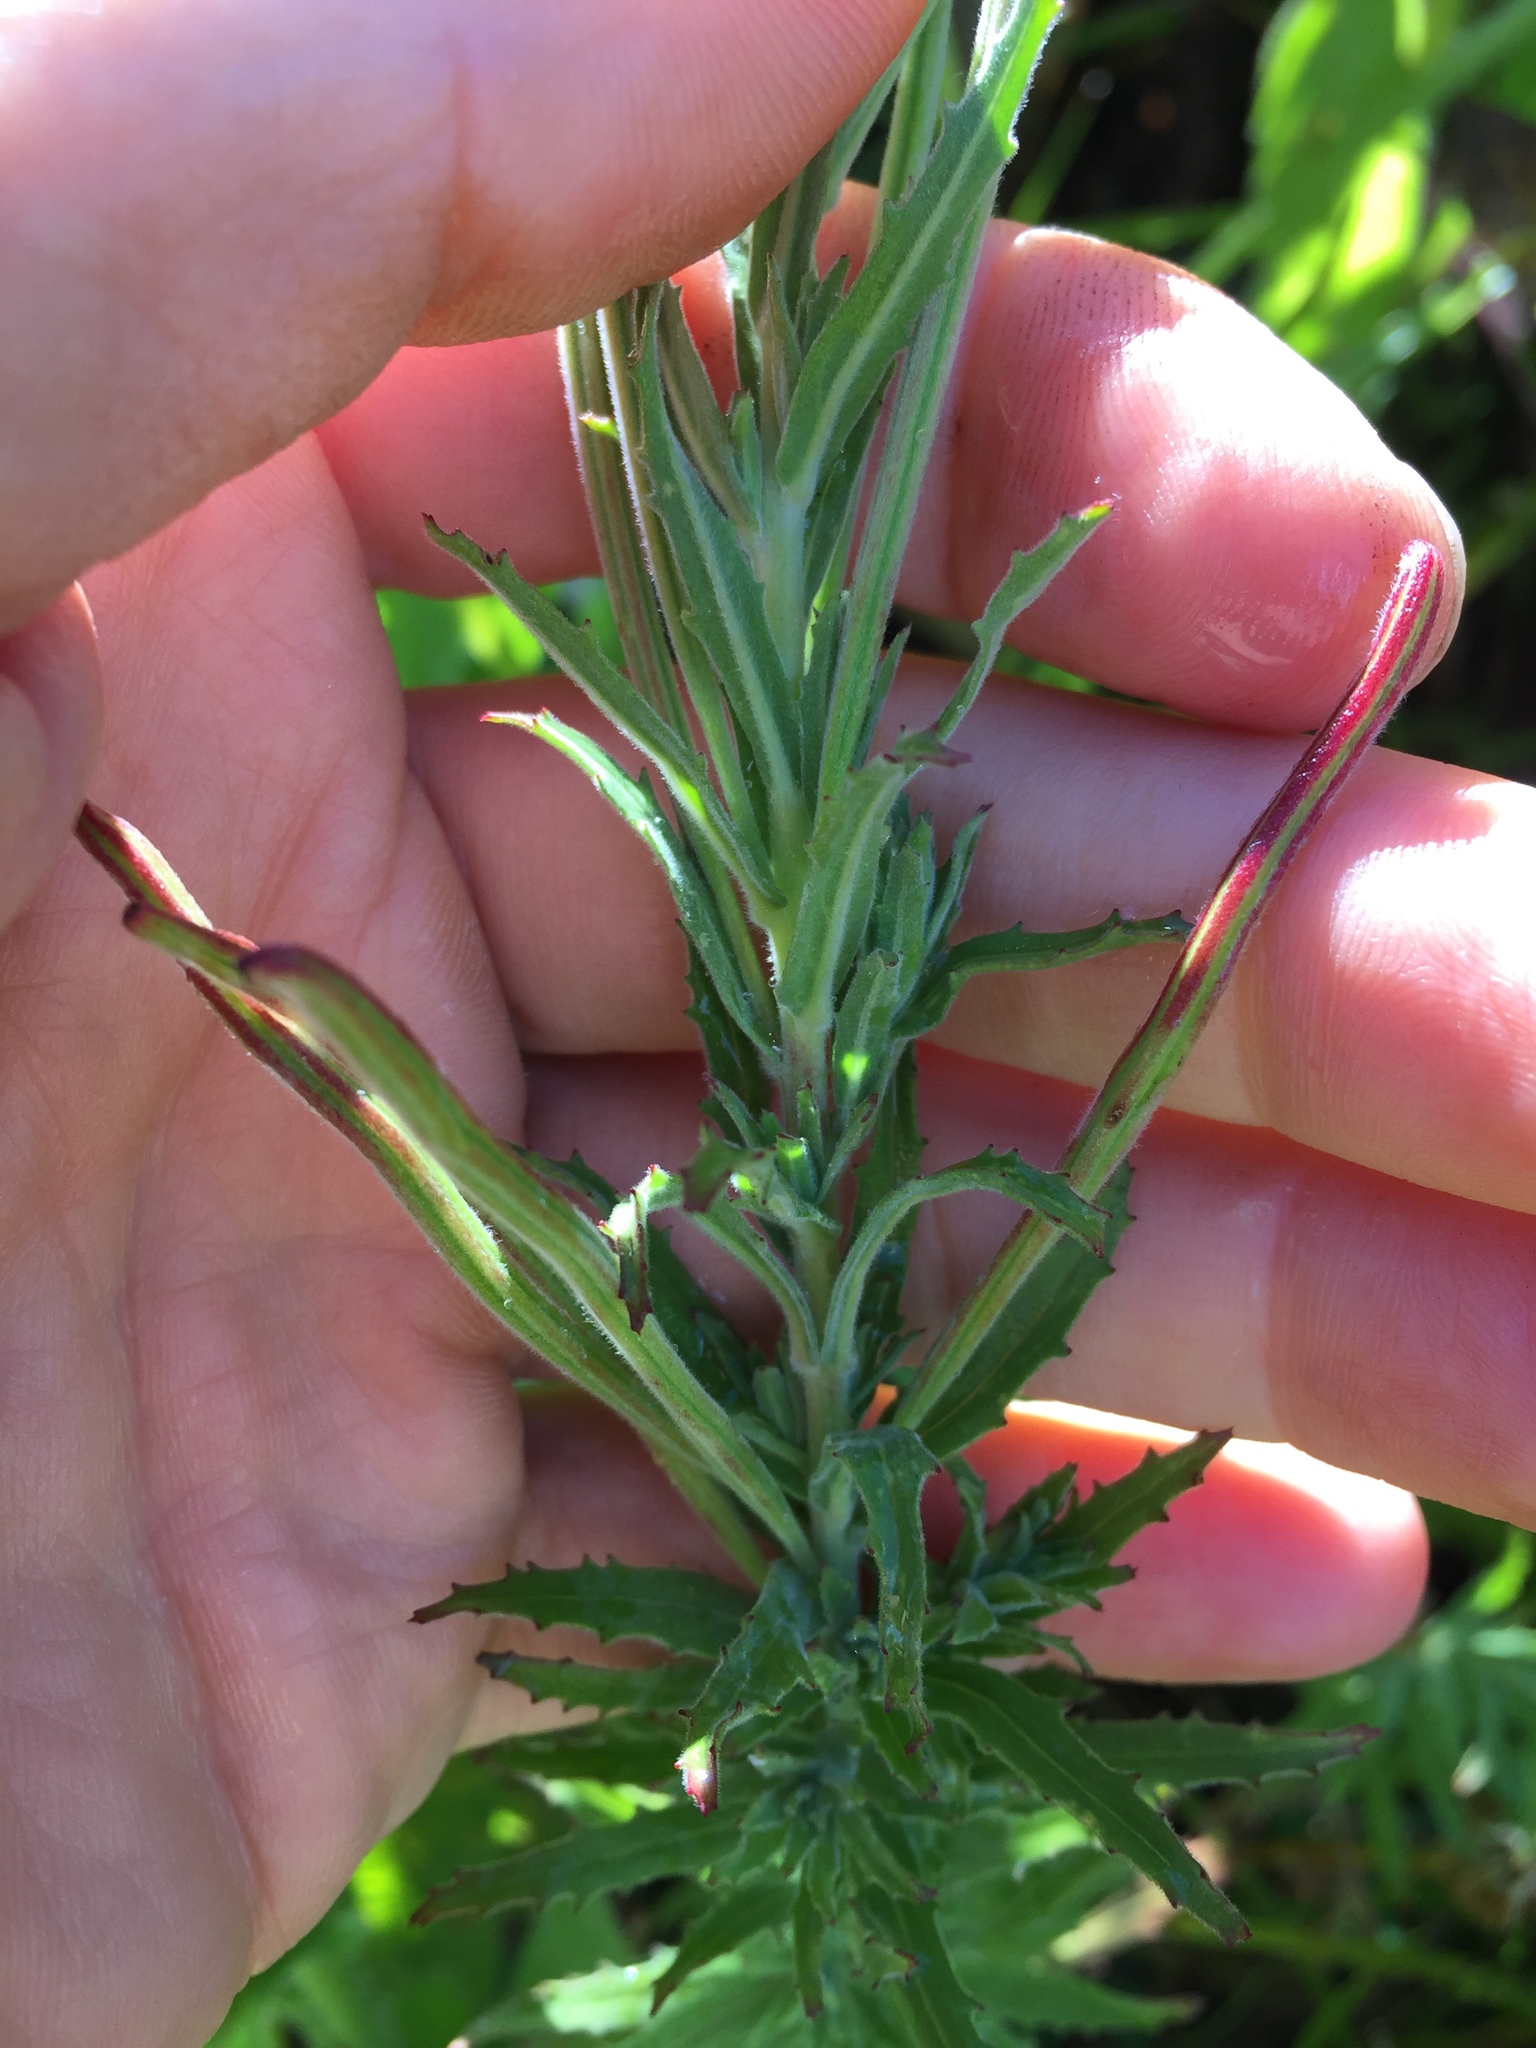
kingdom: Plantae
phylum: Tracheophyta
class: Magnoliopsida
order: Myrtales
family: Onagraceae
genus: Epilobium
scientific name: Epilobium hirtigerum
